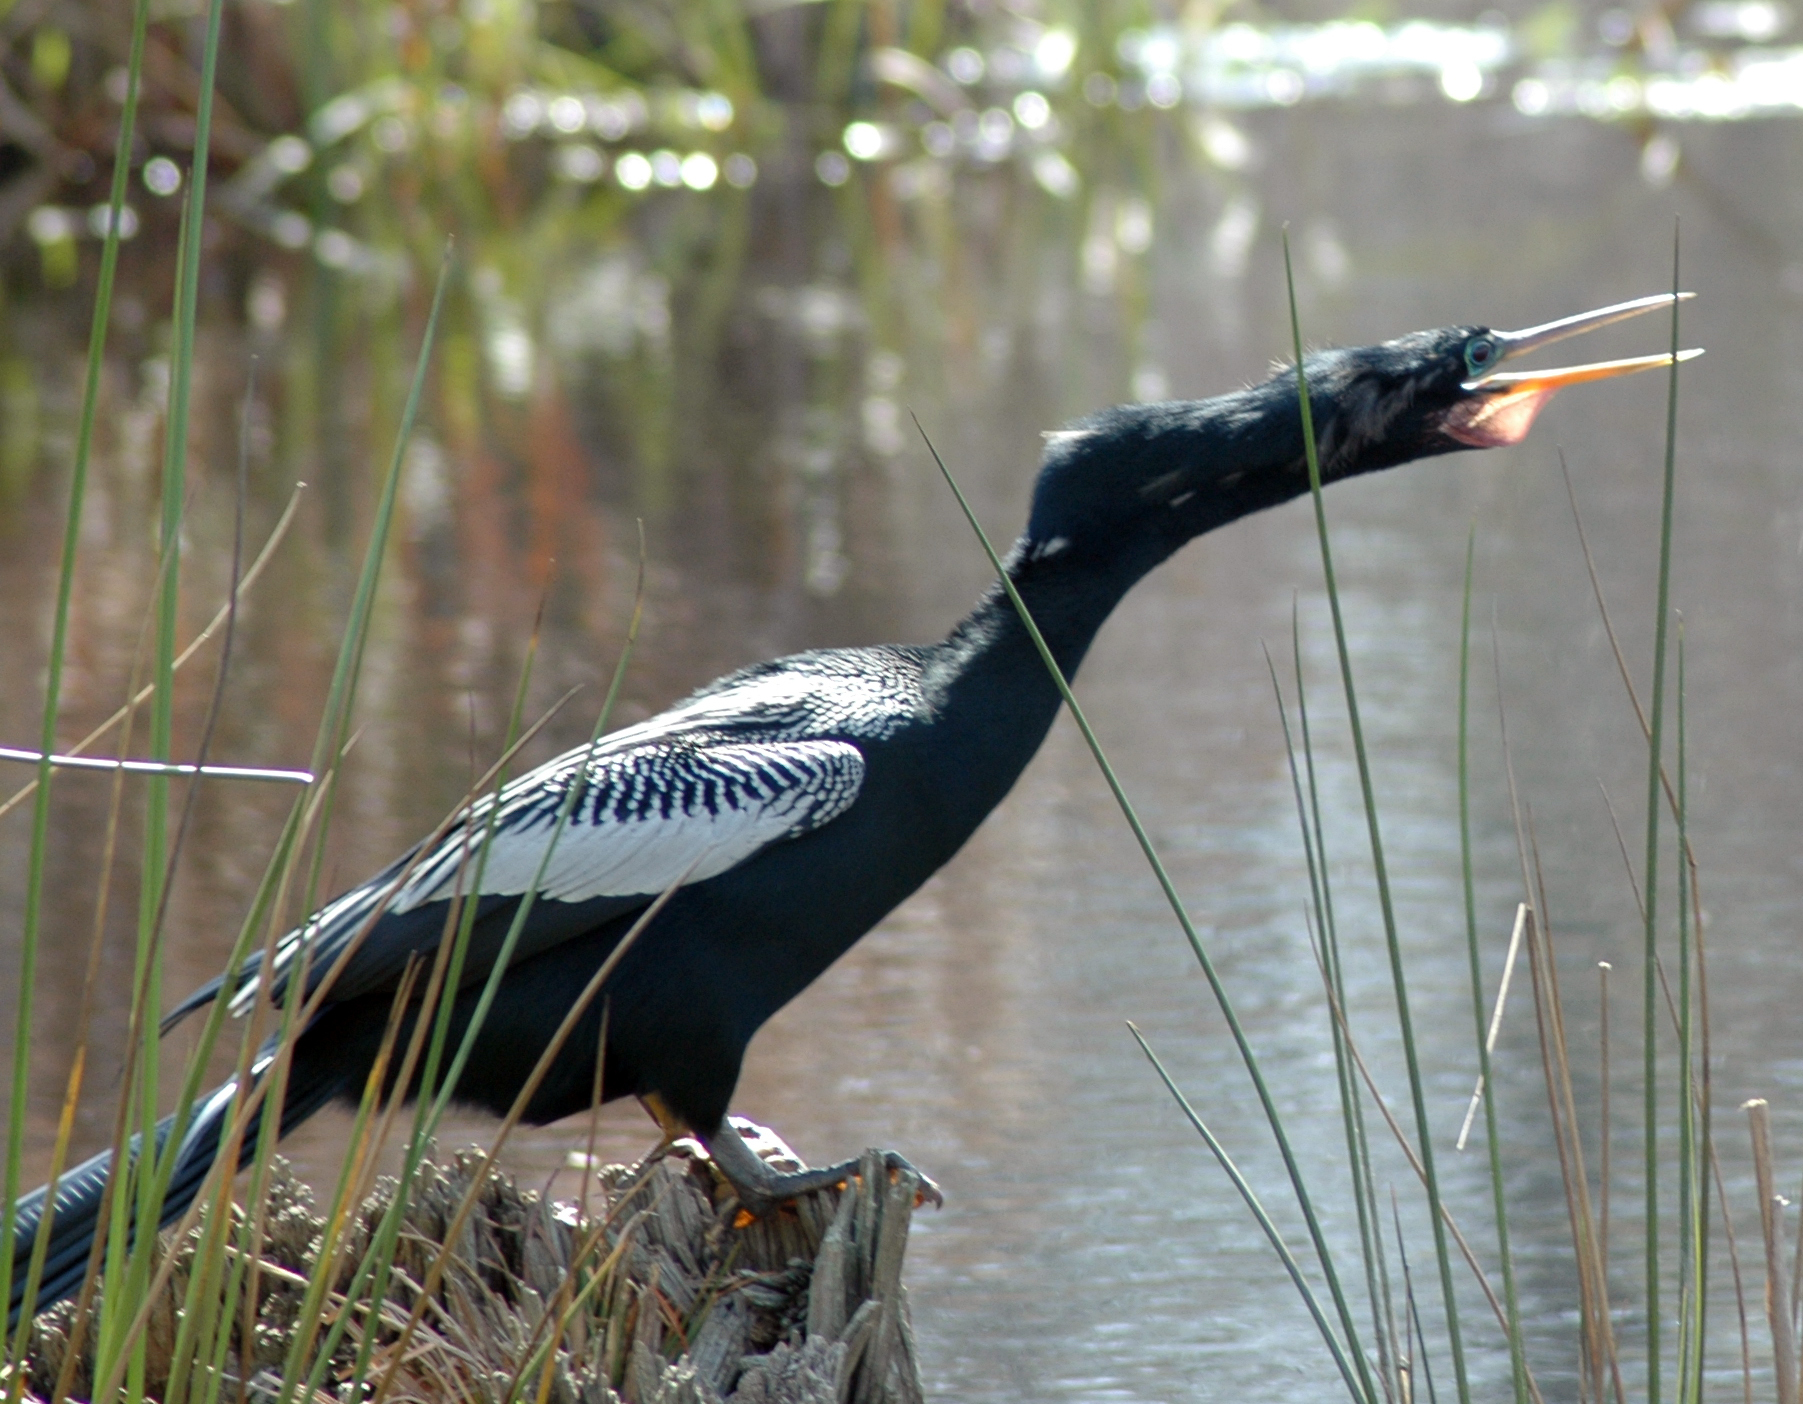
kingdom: Animalia
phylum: Chordata
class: Aves
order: Suliformes
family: Anhingidae
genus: Anhinga
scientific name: Anhinga anhinga
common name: Anhinga
